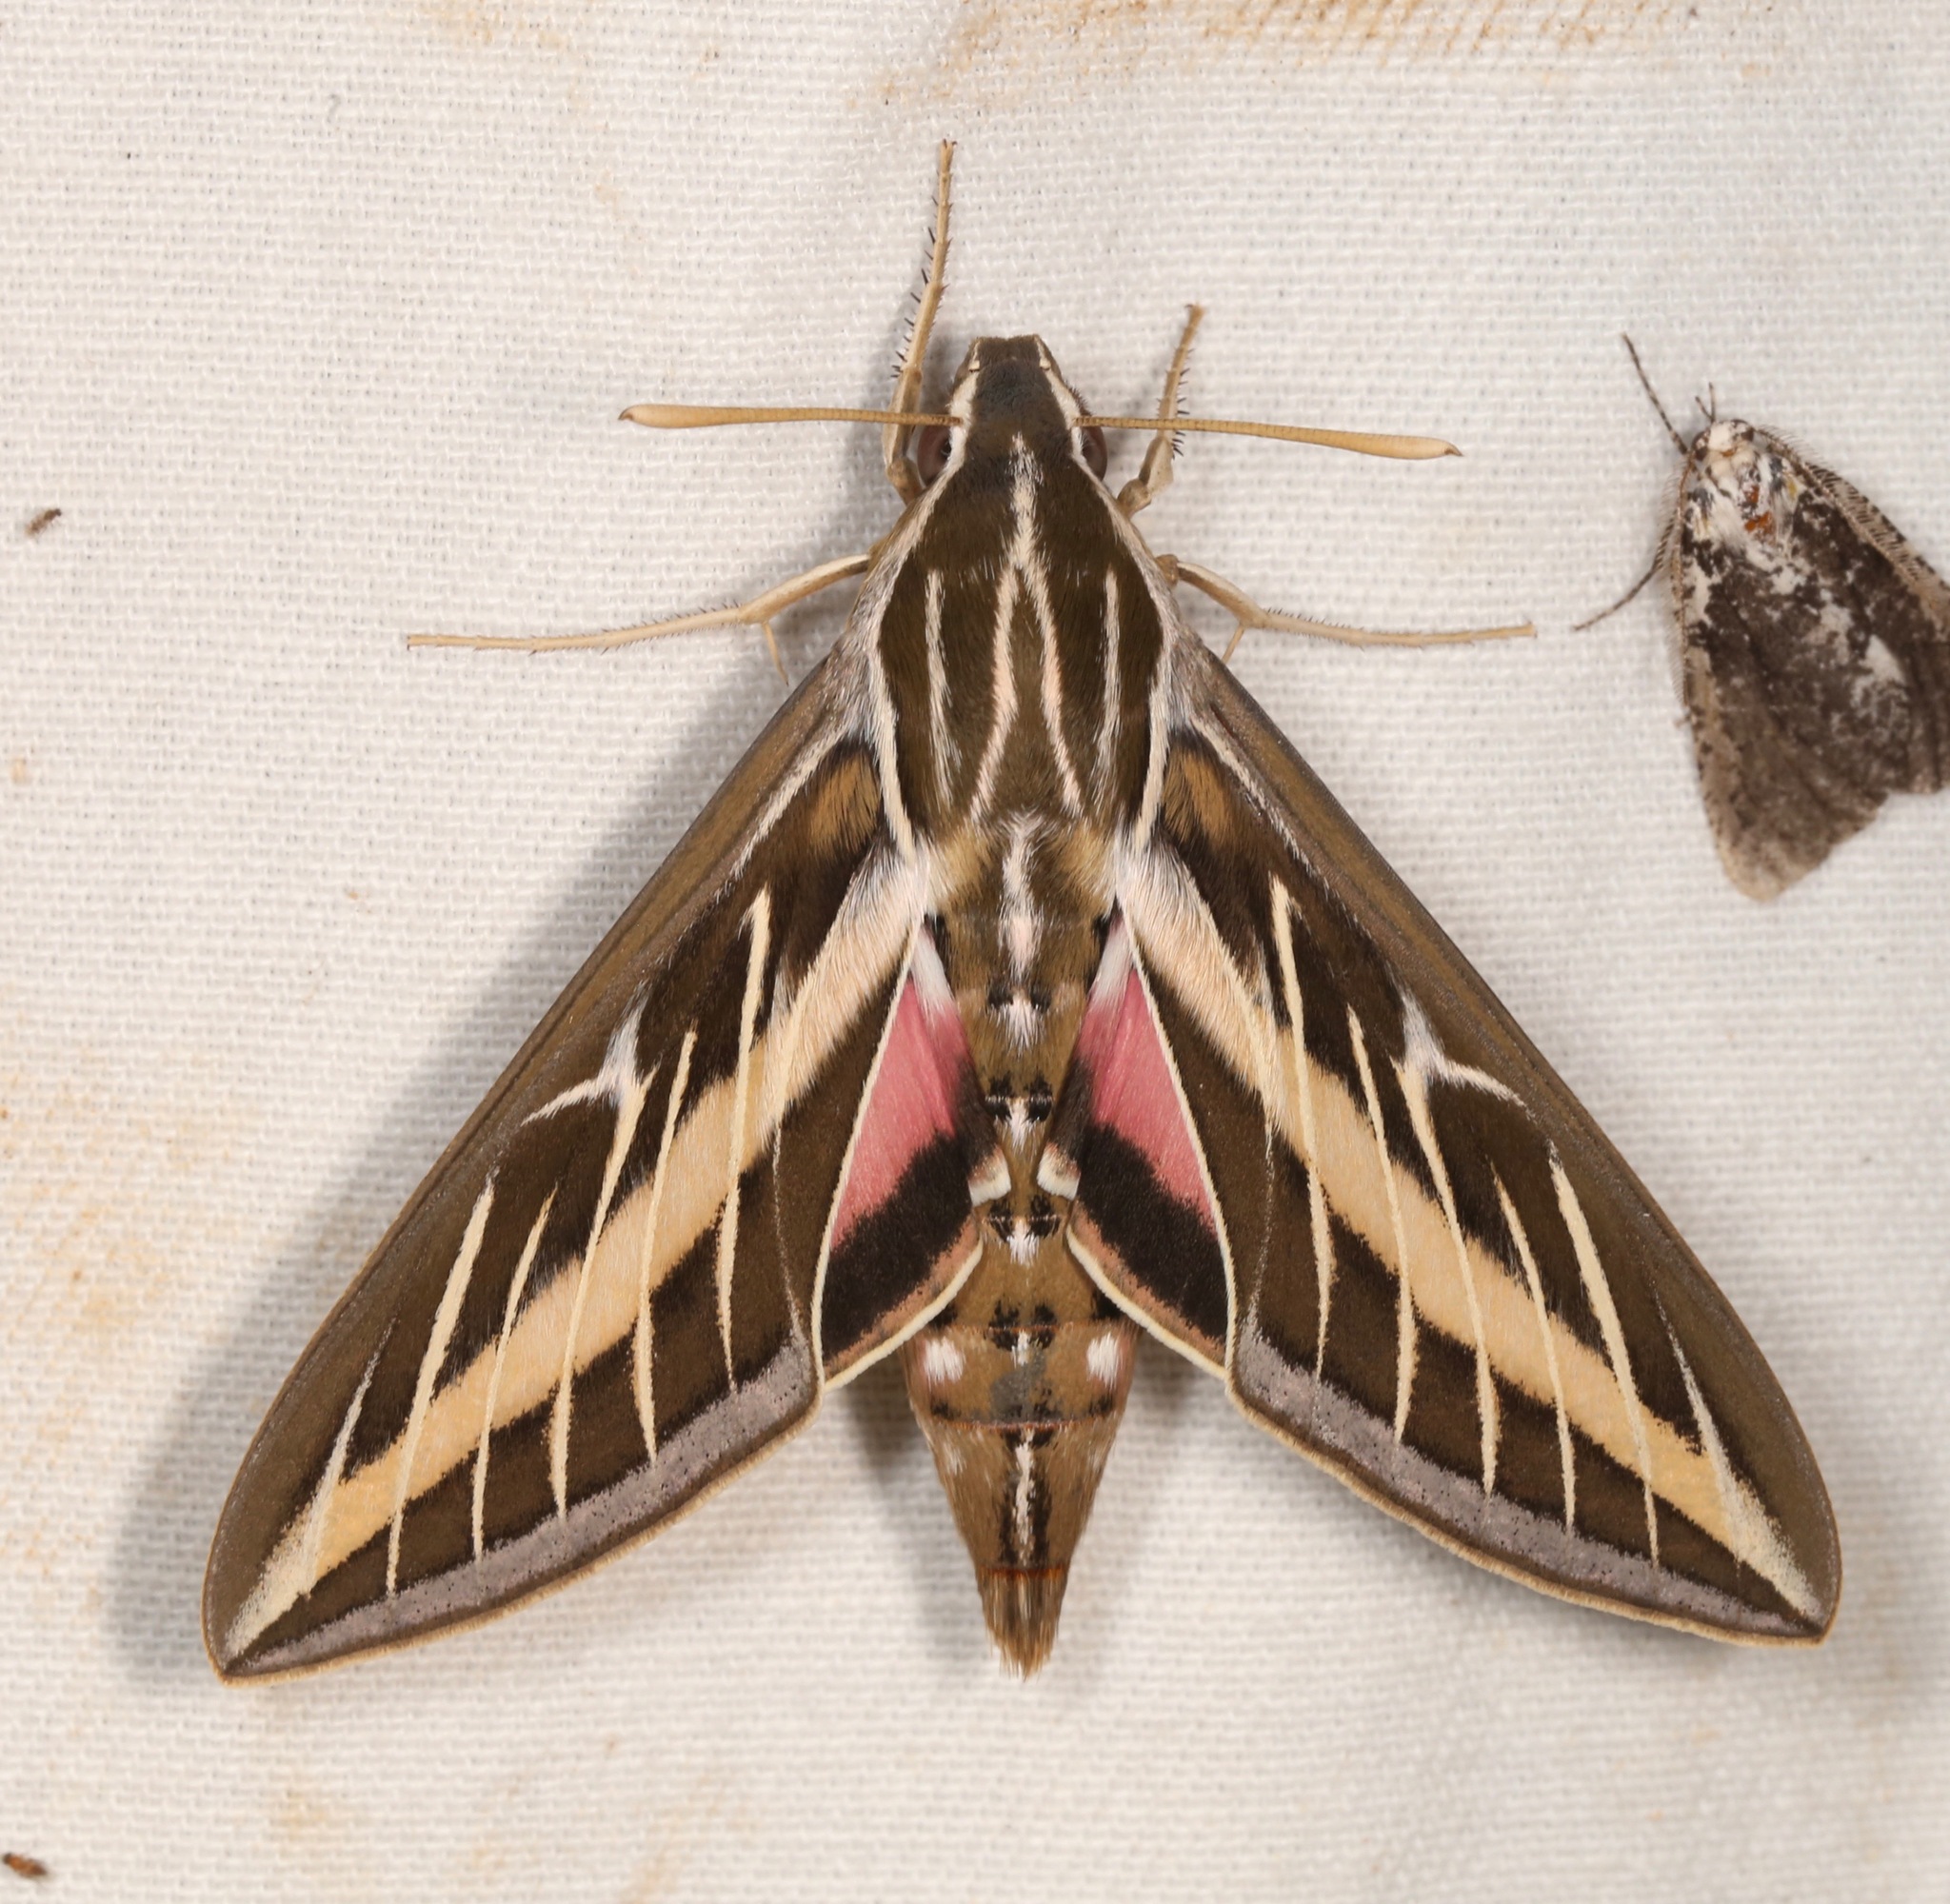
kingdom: Animalia
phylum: Arthropoda
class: Insecta
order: Lepidoptera
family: Sphingidae
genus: Hyles
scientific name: Hyles lineata
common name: White-lined sphinx
